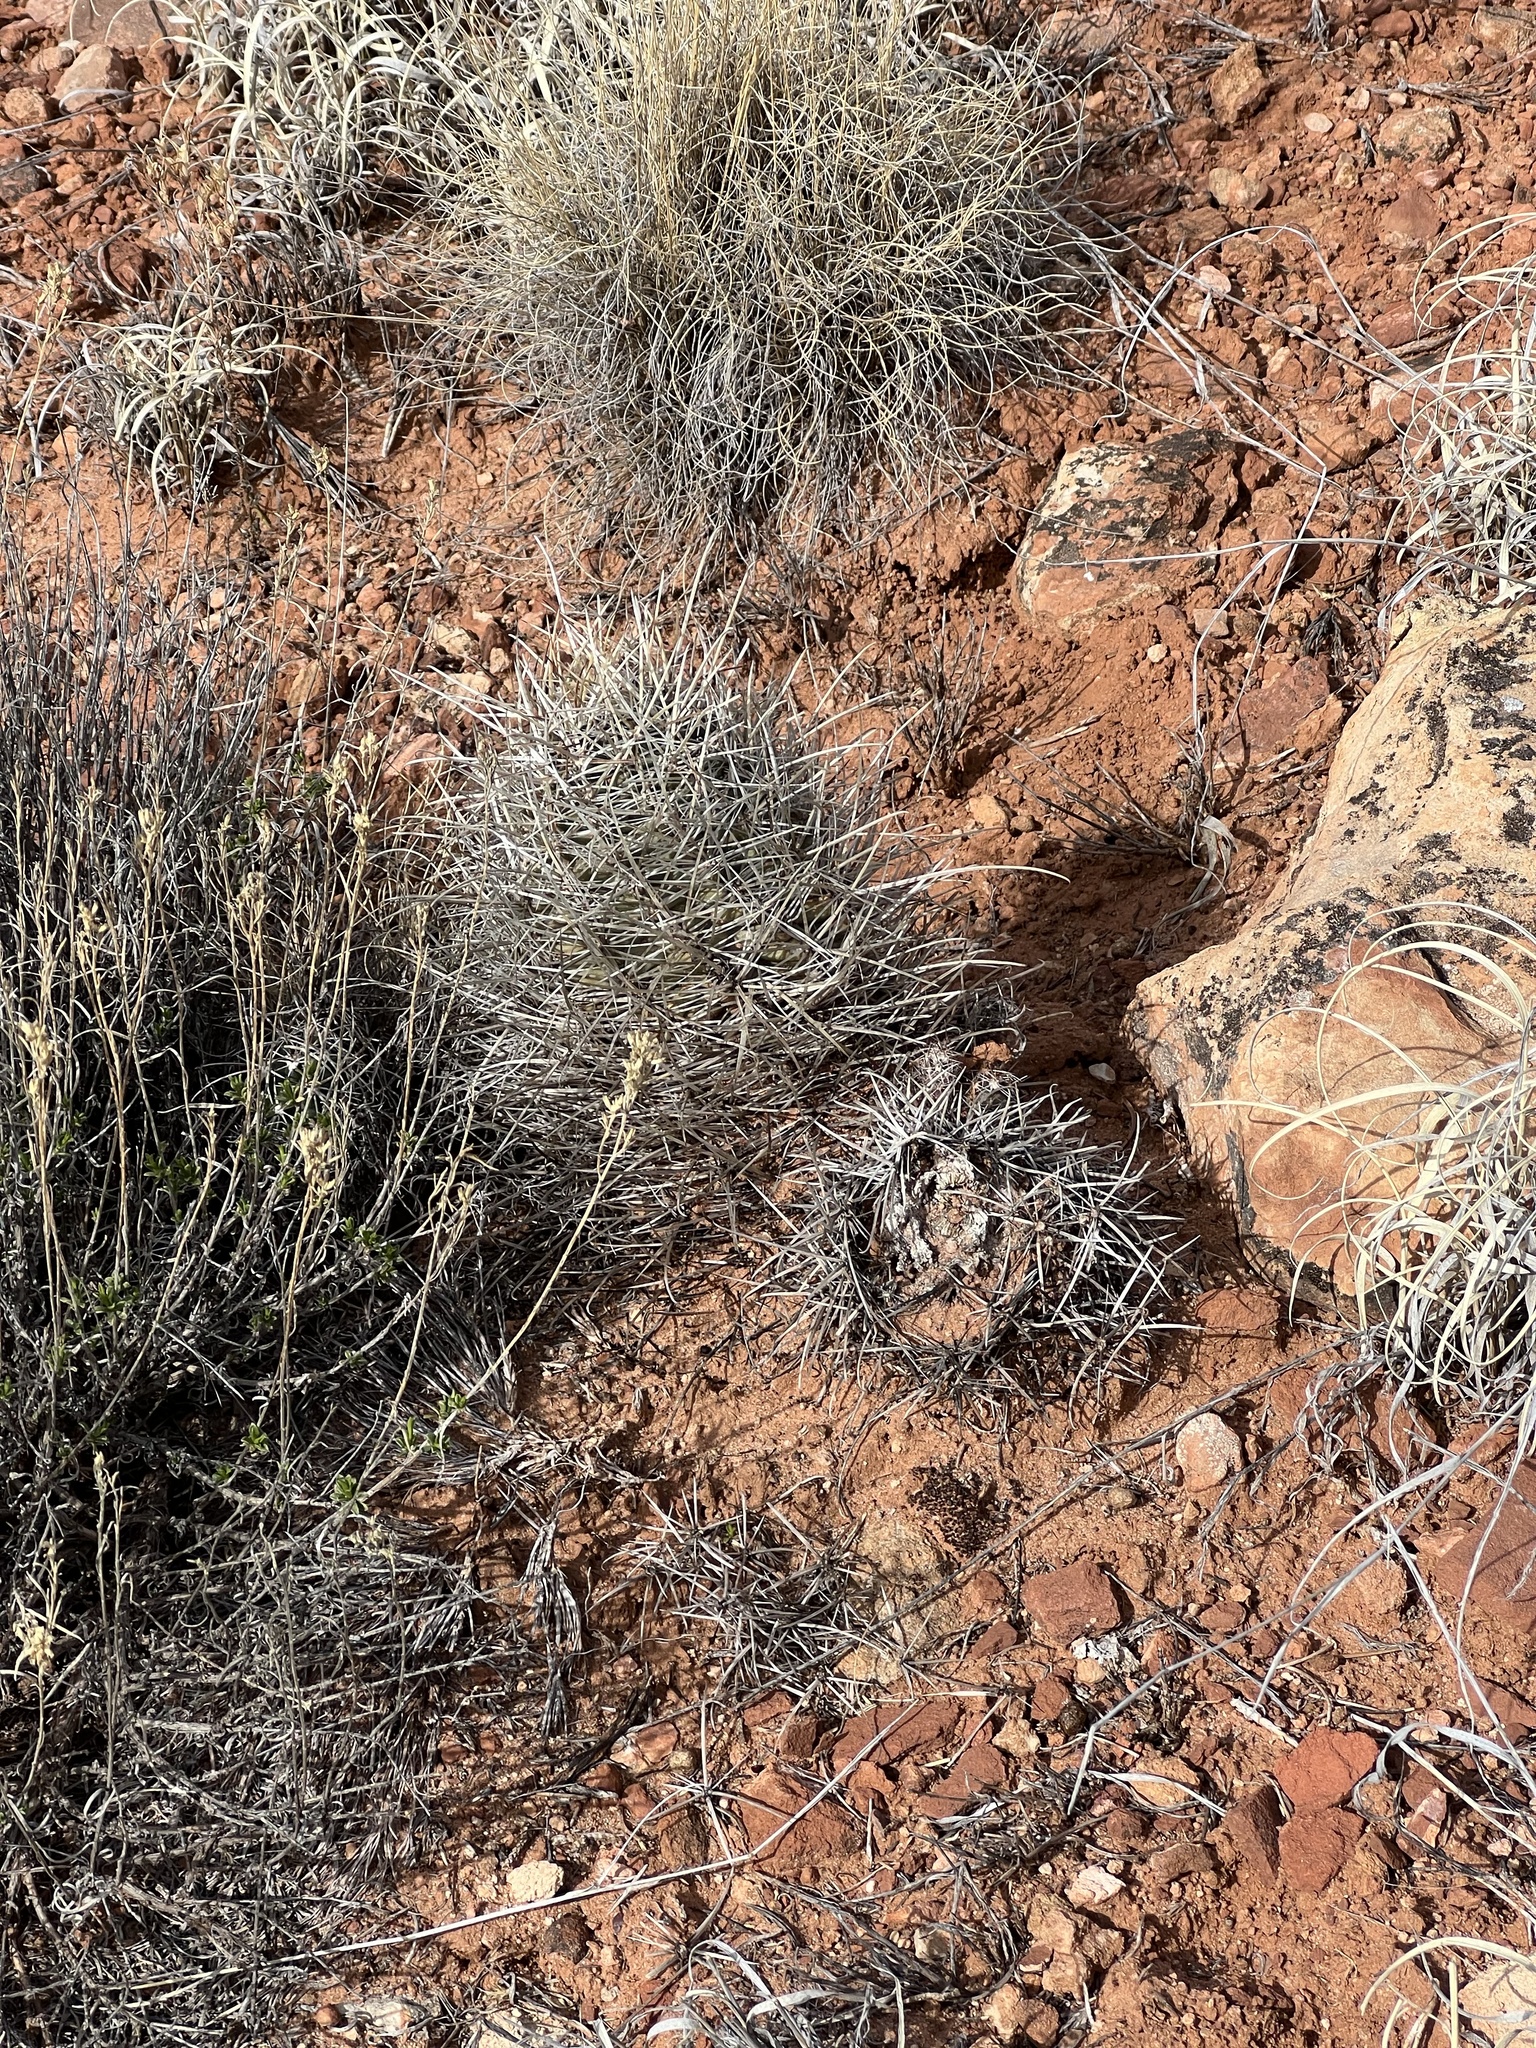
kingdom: Plantae
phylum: Tracheophyta
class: Magnoliopsida
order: Caryophyllales
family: Cactaceae
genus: Sclerocactus
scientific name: Sclerocactus parviflorus
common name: Small-flower fishhook cactus
